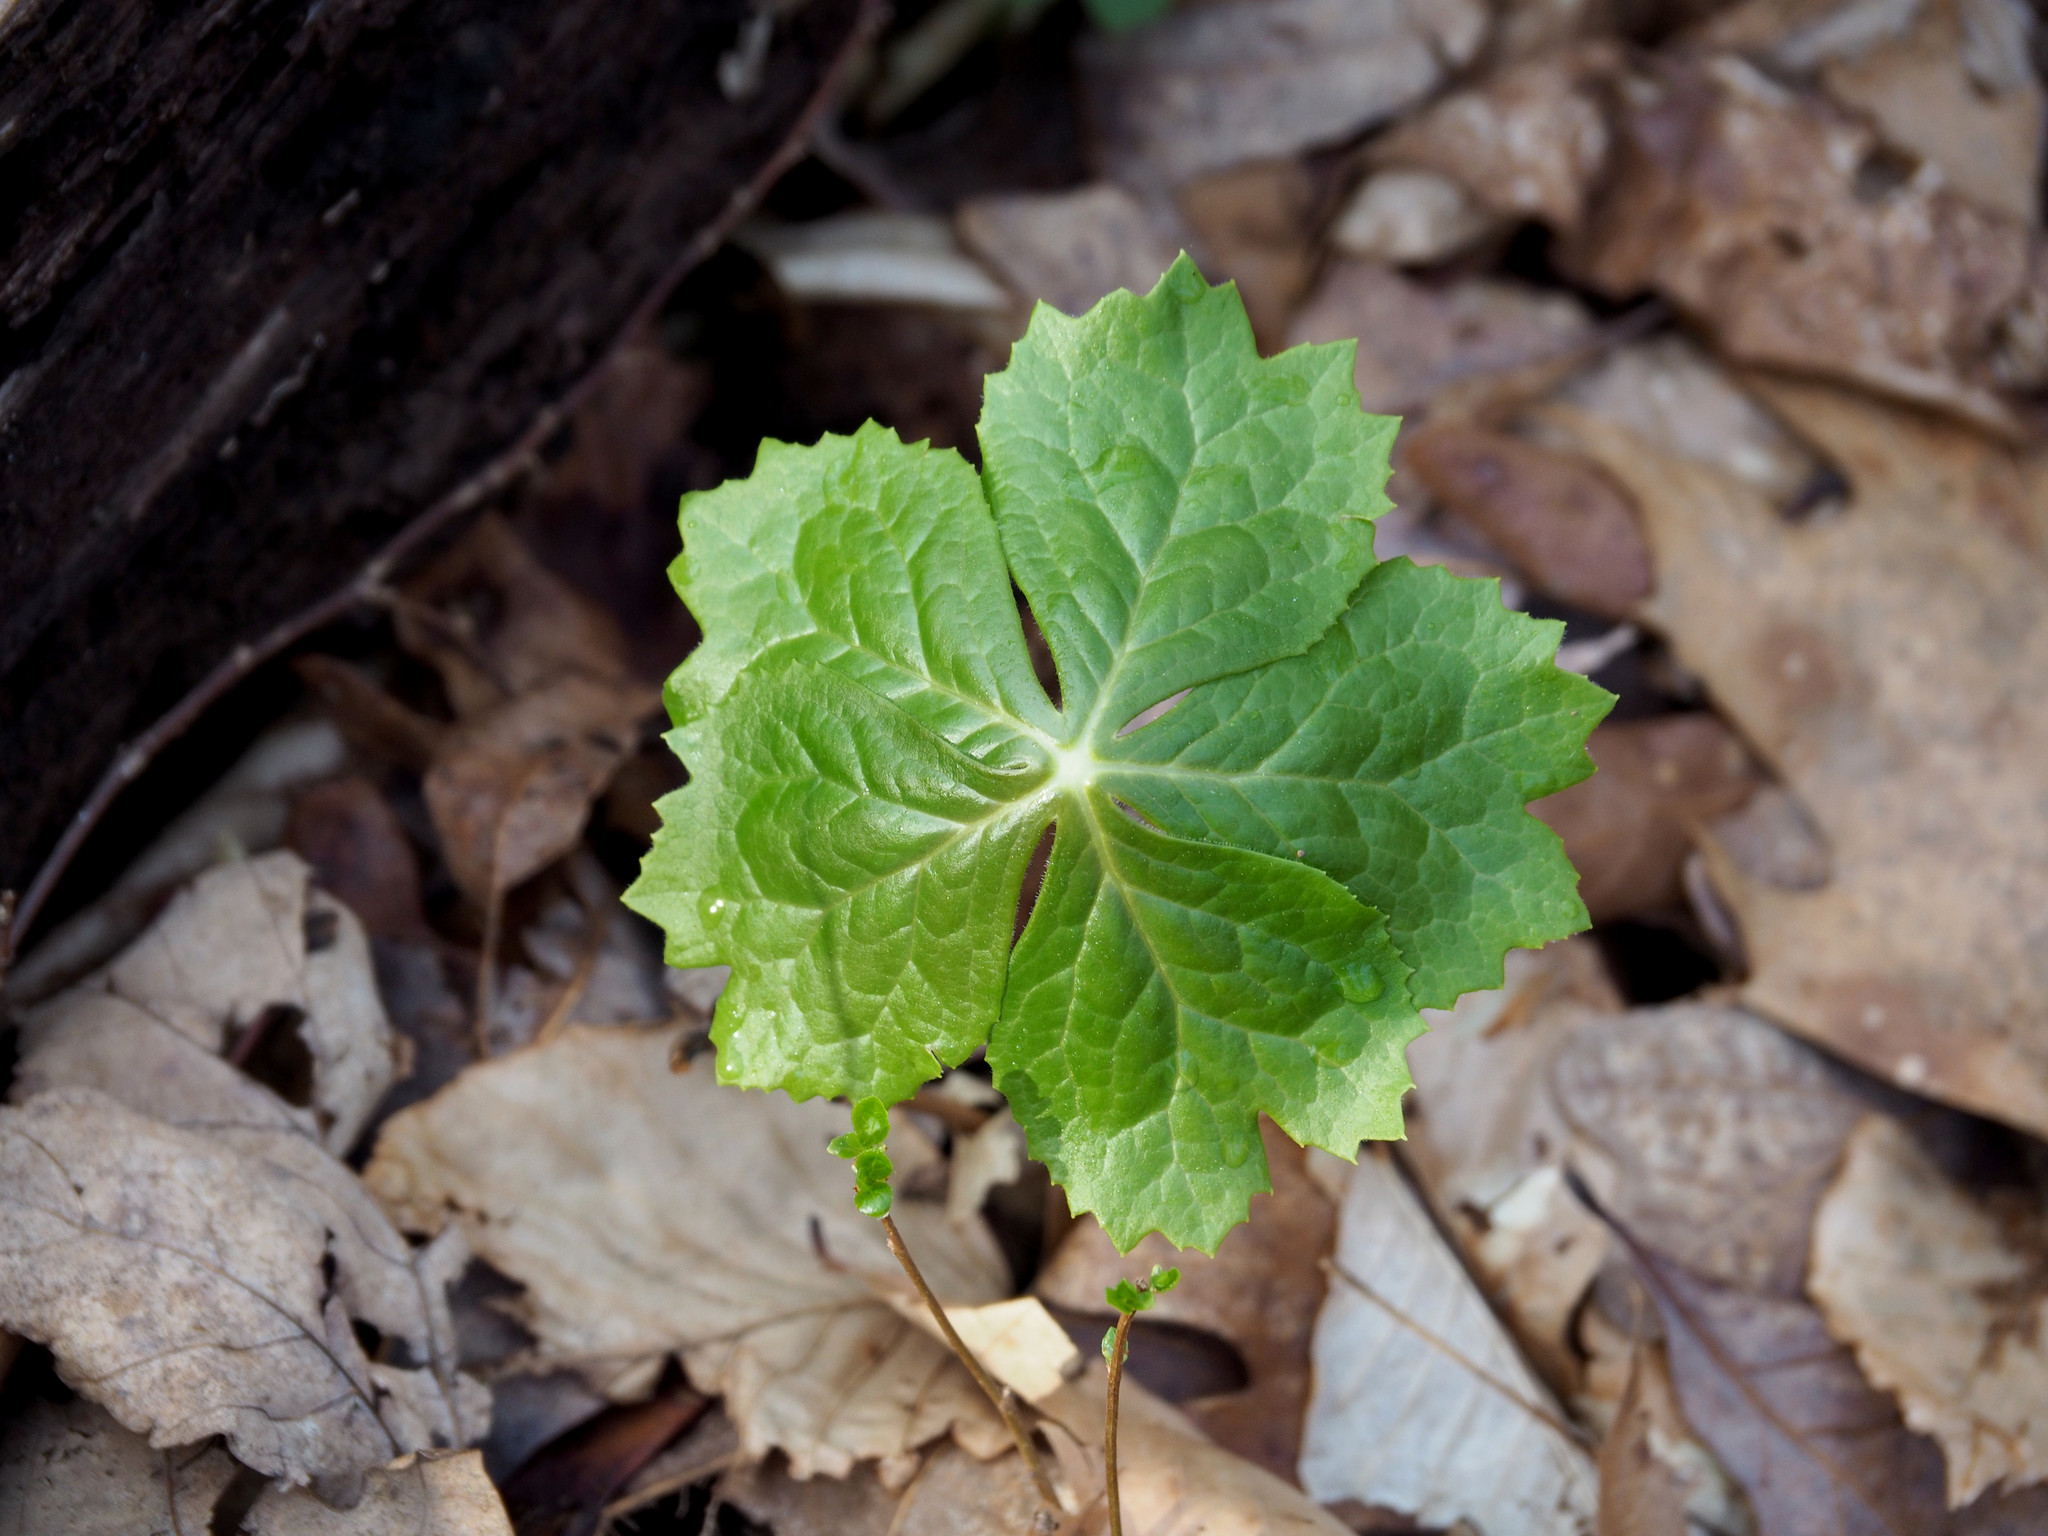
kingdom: Plantae
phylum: Tracheophyta
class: Magnoliopsida
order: Ranunculales
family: Berberidaceae
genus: Podophyllum
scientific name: Podophyllum peltatum
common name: Wild mandrake
